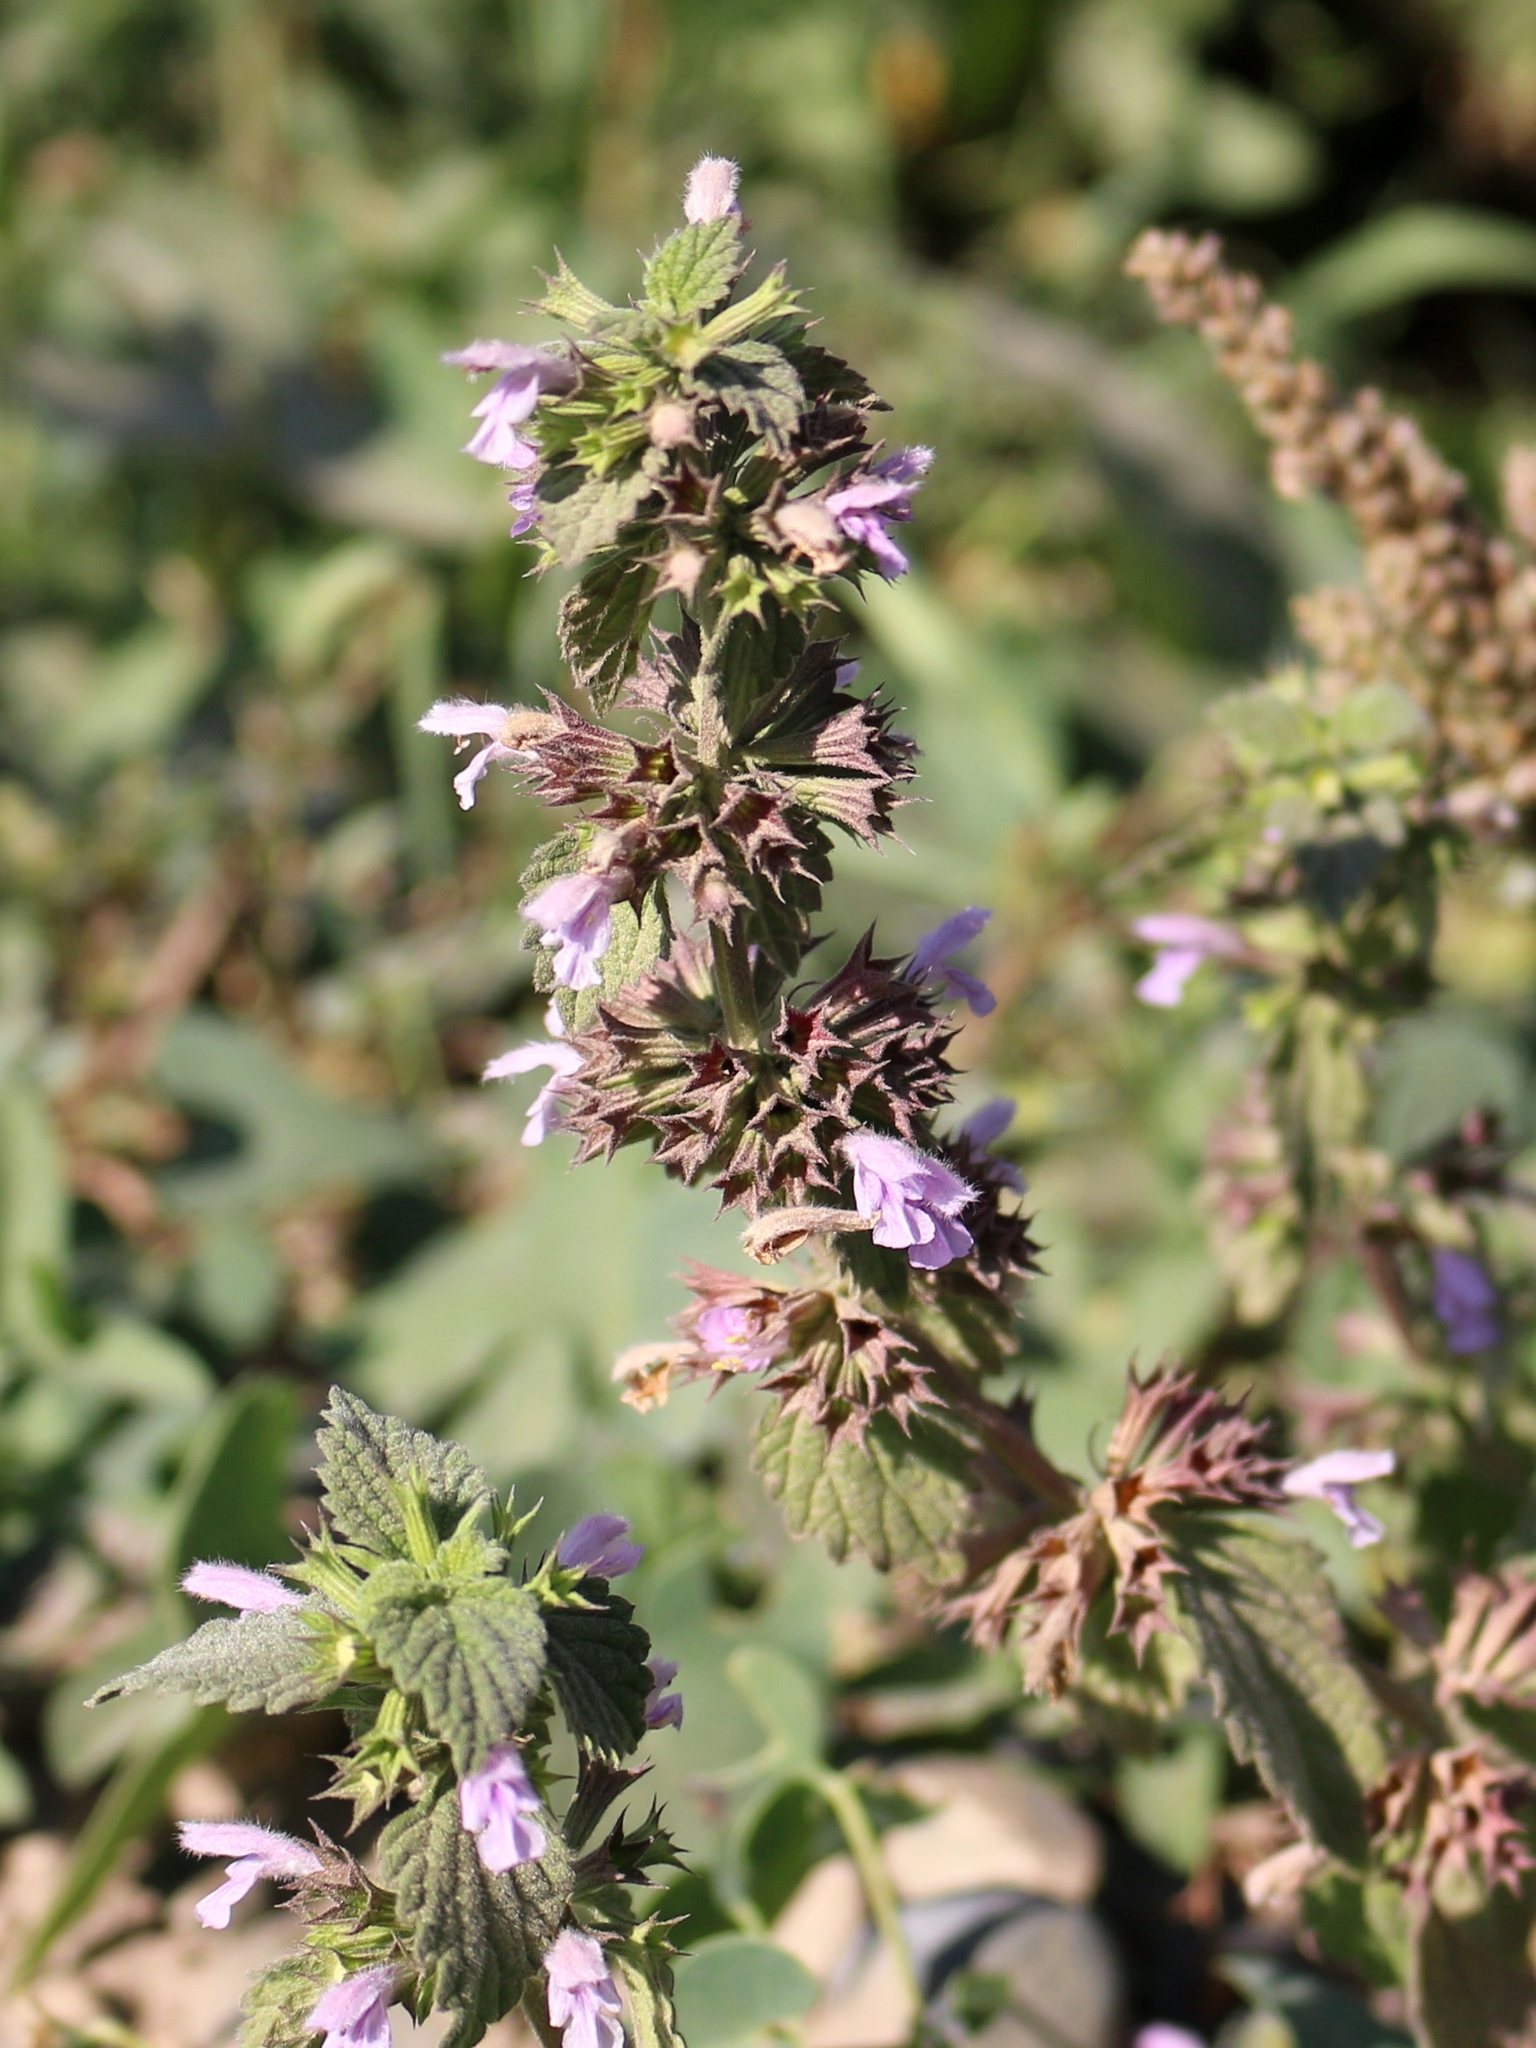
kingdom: Plantae
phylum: Tracheophyta
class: Magnoliopsida
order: Lamiales
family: Lamiaceae
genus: Ballota
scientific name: Ballota nigra
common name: Black horehound
